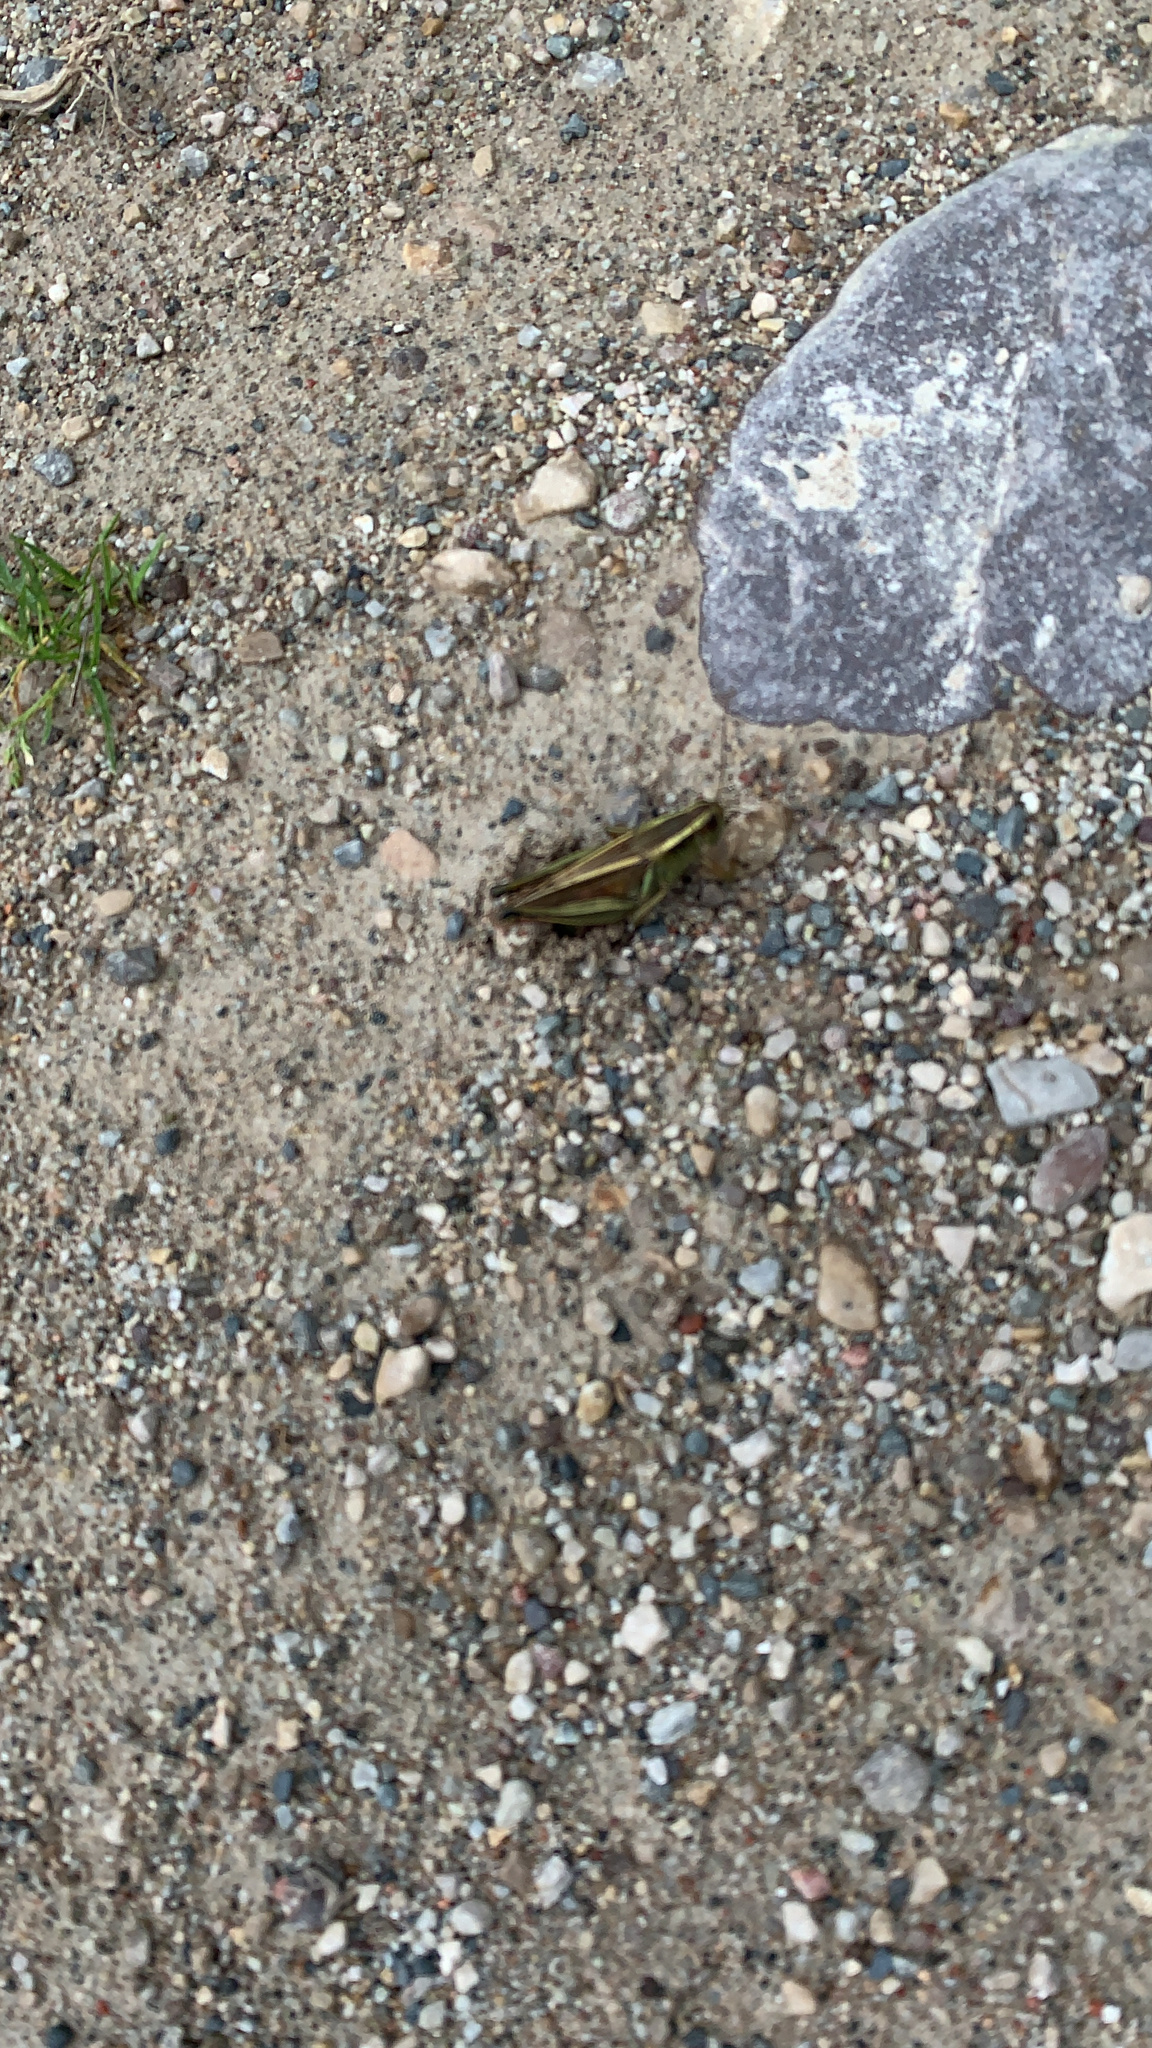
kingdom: Animalia
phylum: Arthropoda
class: Insecta
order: Orthoptera
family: Acrididae
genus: Melanoplus
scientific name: Melanoplus bivittatus
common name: Two-striped grasshopper
